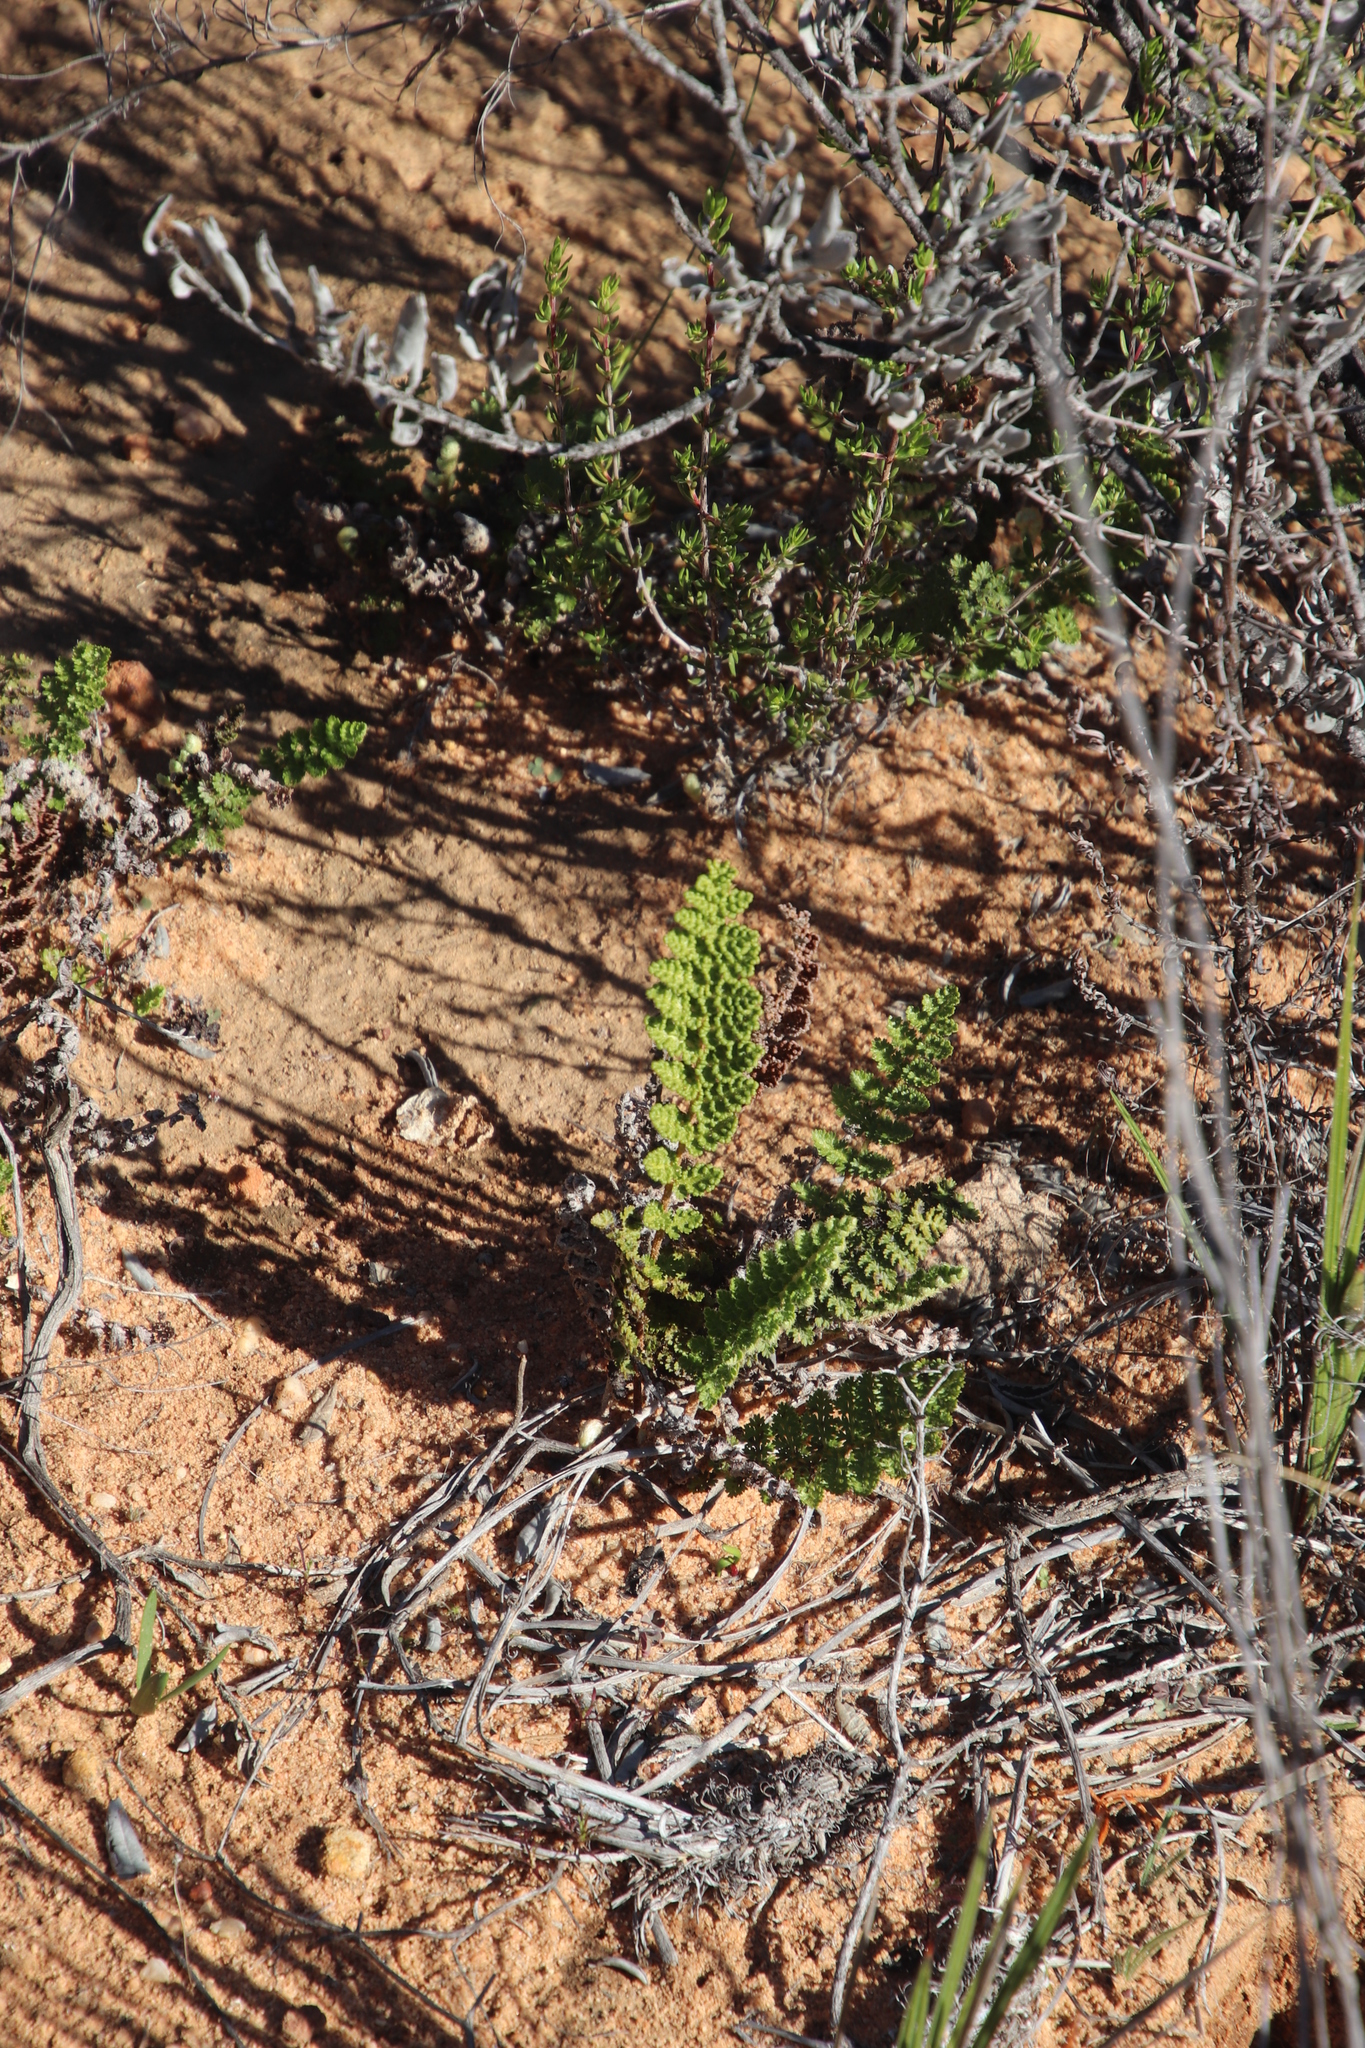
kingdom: Plantae
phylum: Tracheophyta
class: Polypodiopsida
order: Schizaeales
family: Anemiaceae
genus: Anemia
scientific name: Anemia caffrorum
